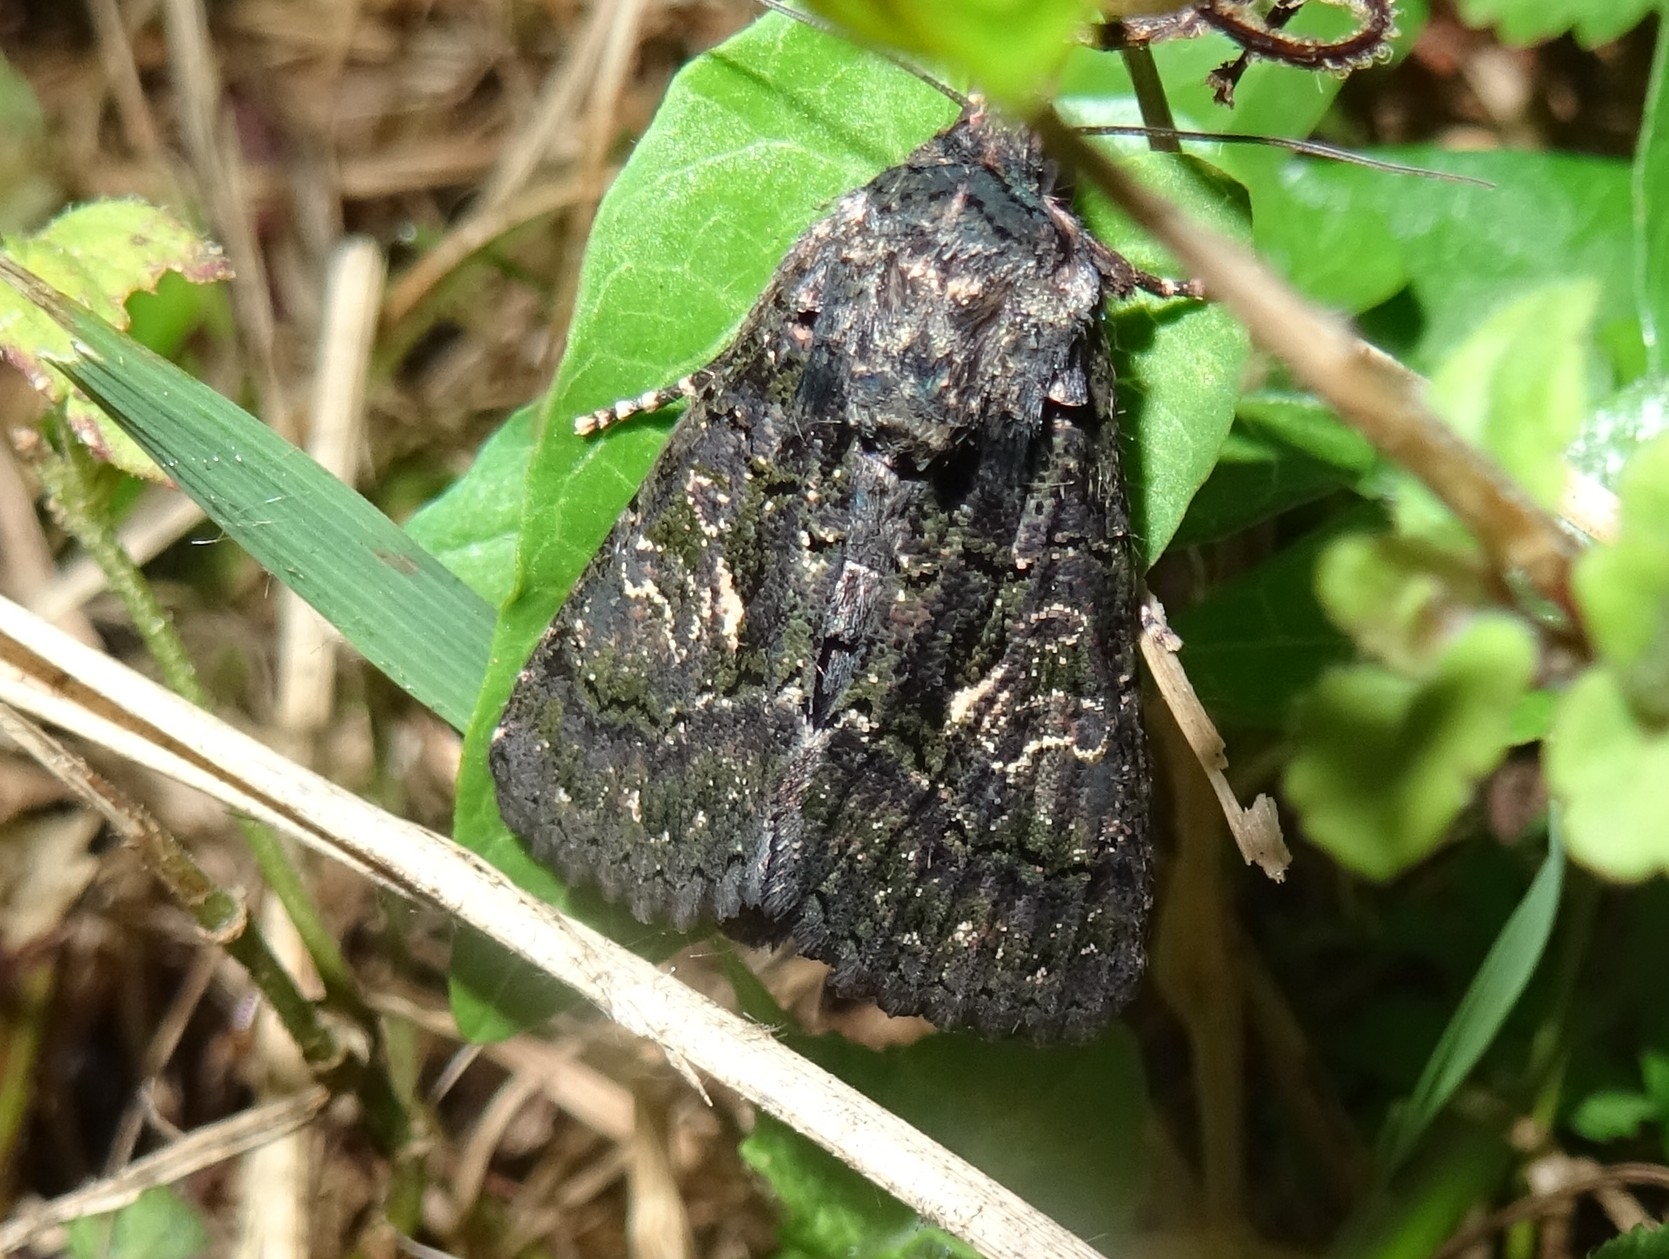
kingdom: Animalia
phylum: Arthropoda
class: Insecta
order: Lepidoptera
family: Noctuidae
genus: Aedia
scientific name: Aedia leucomelas
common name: Sorcerer
